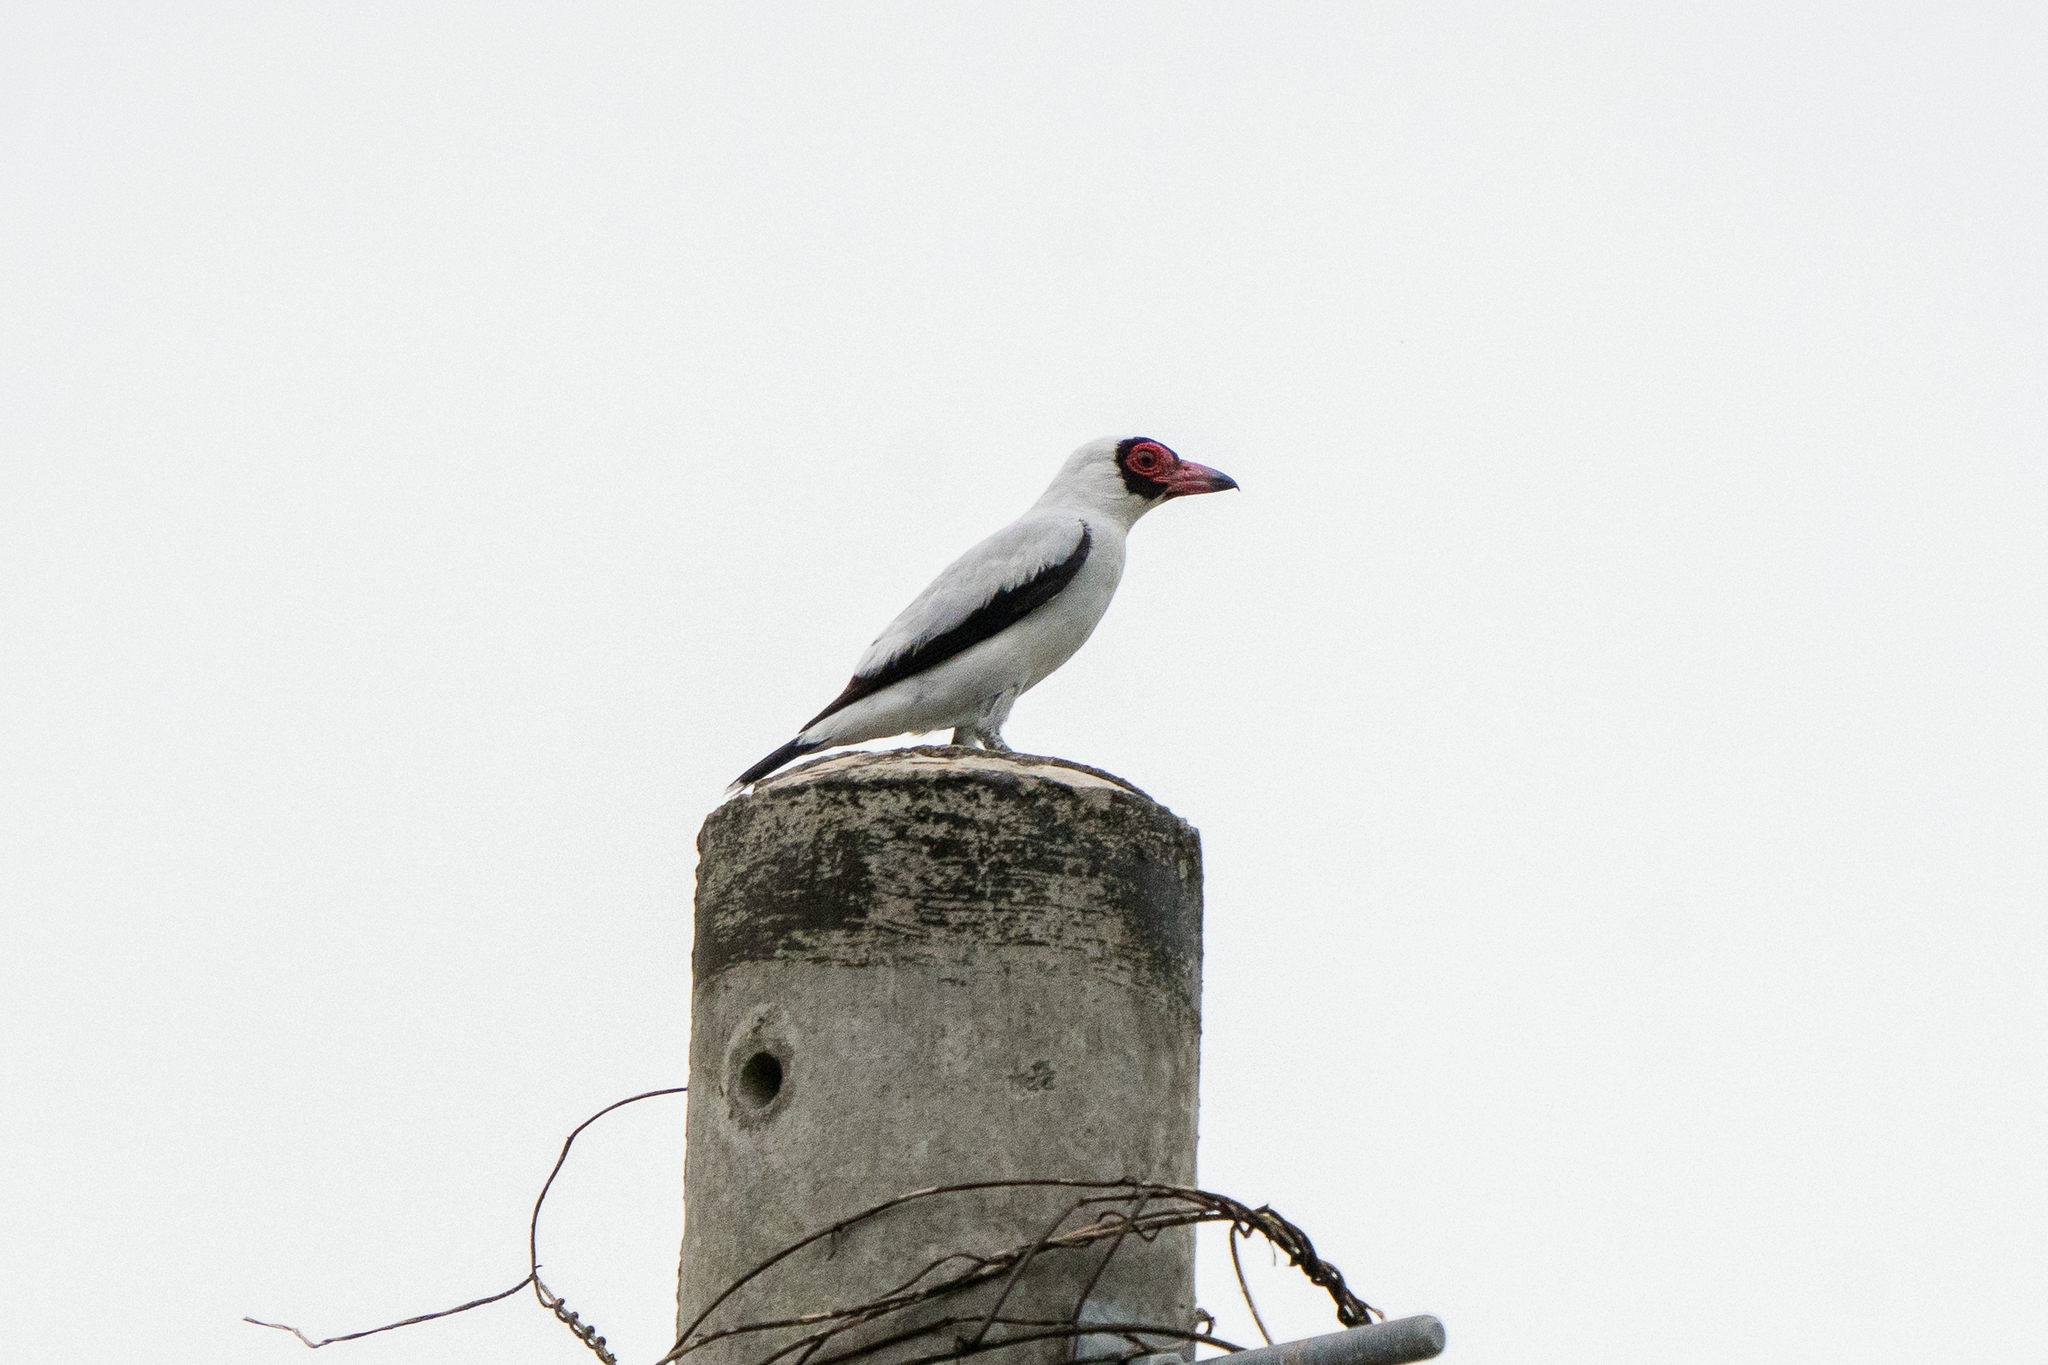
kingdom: Animalia
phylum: Chordata
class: Aves
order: Passeriformes
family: Cotingidae
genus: Tityra
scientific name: Tityra semifasciata
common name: Masked tityra
